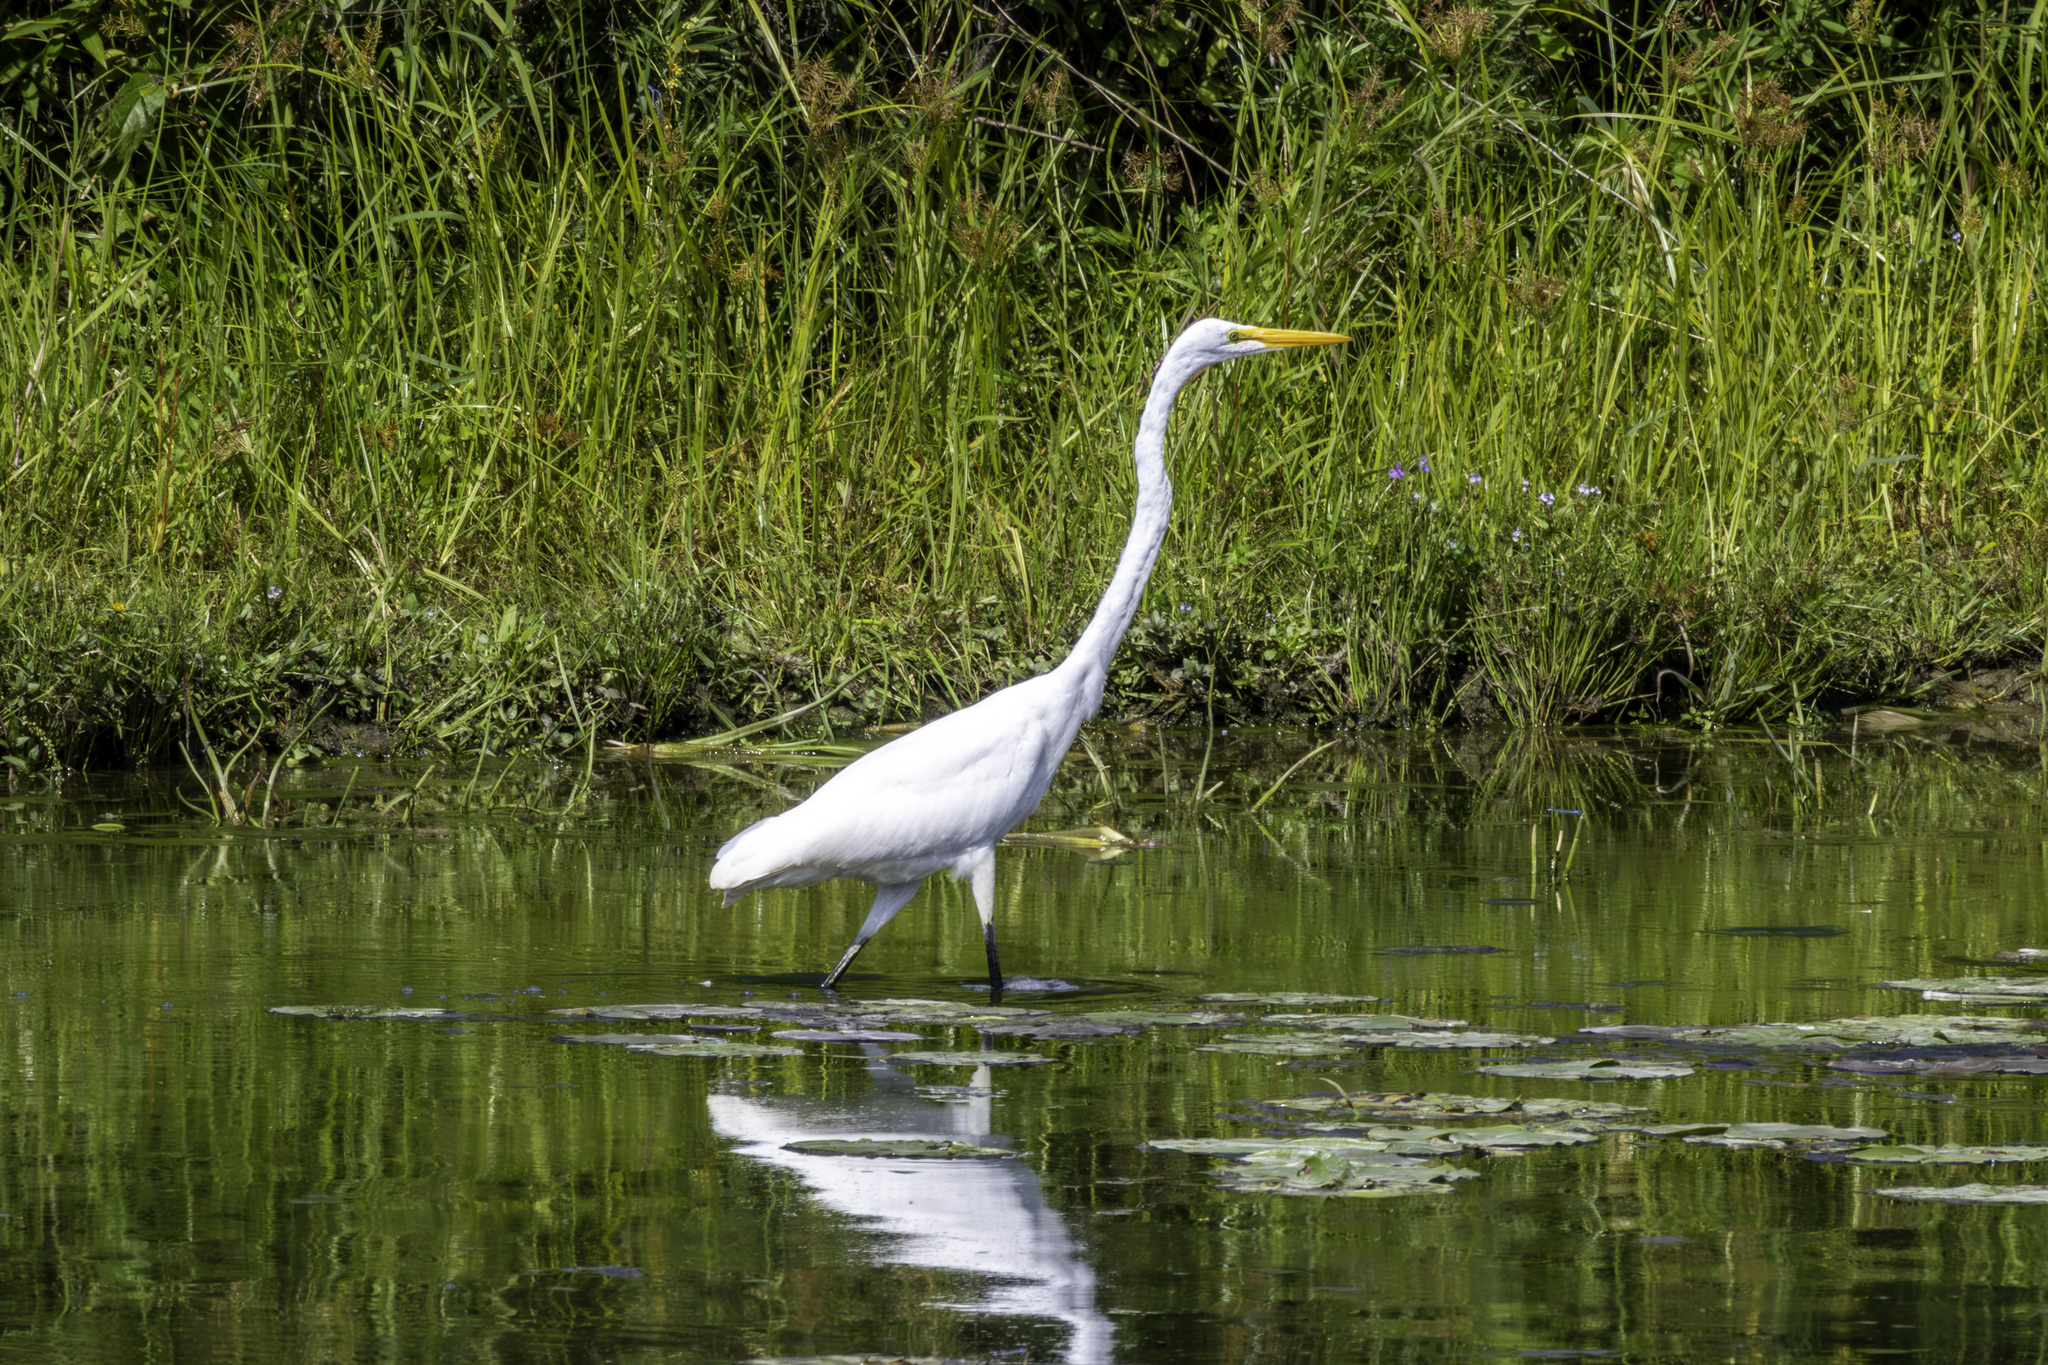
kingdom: Animalia
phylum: Chordata
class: Aves
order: Pelecaniformes
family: Ardeidae
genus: Ardea
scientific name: Ardea alba
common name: Great egret
